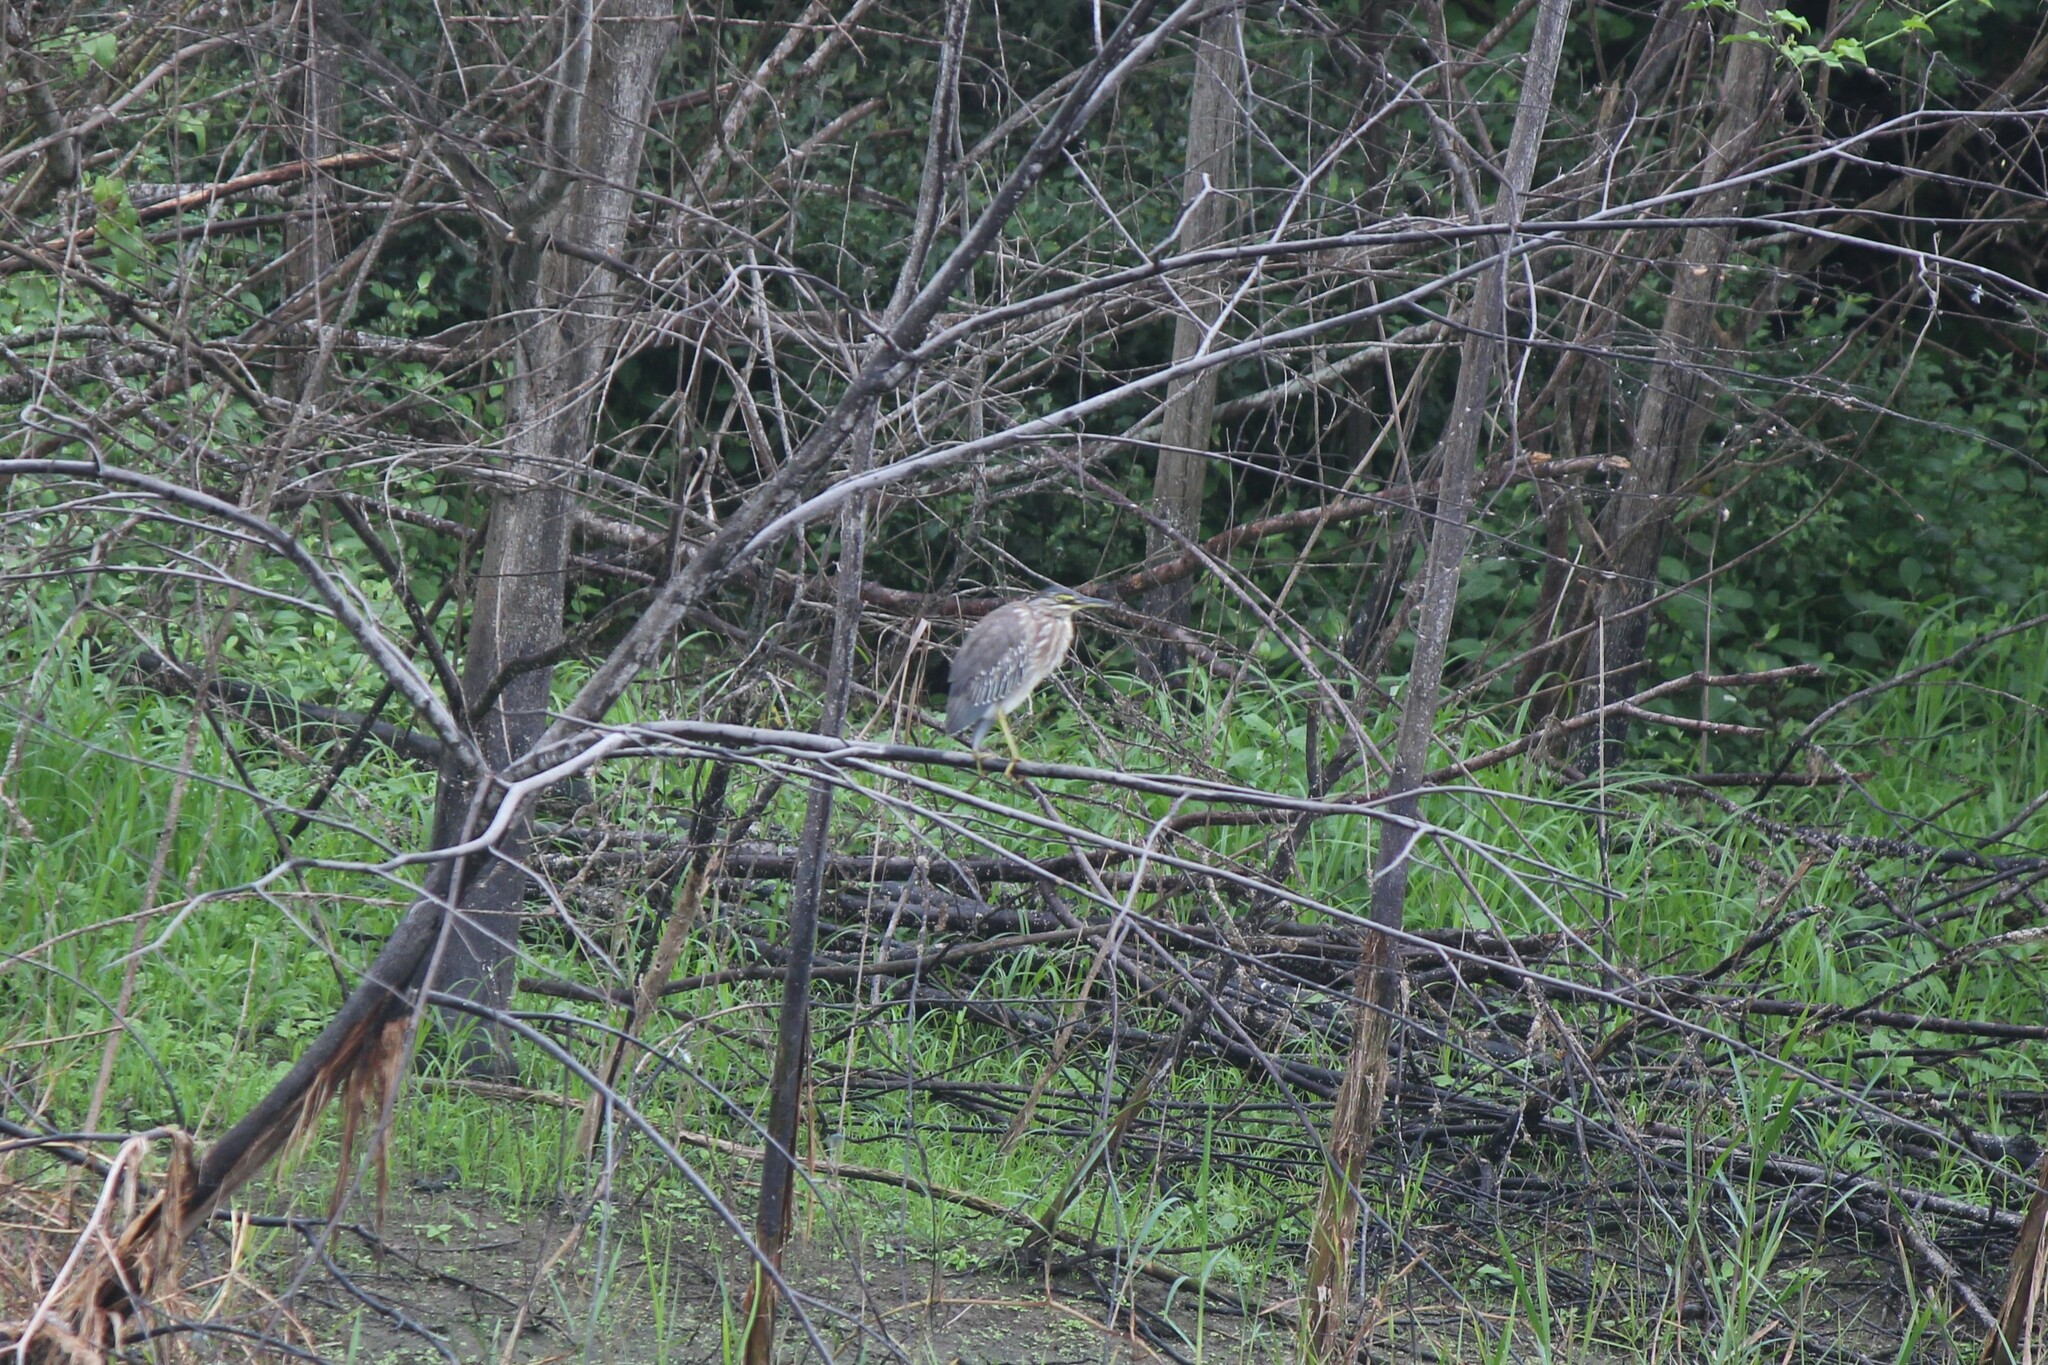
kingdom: Animalia
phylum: Chordata
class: Aves
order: Pelecaniformes
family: Ardeidae
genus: Butorides
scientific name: Butorides striata
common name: Striated heron
